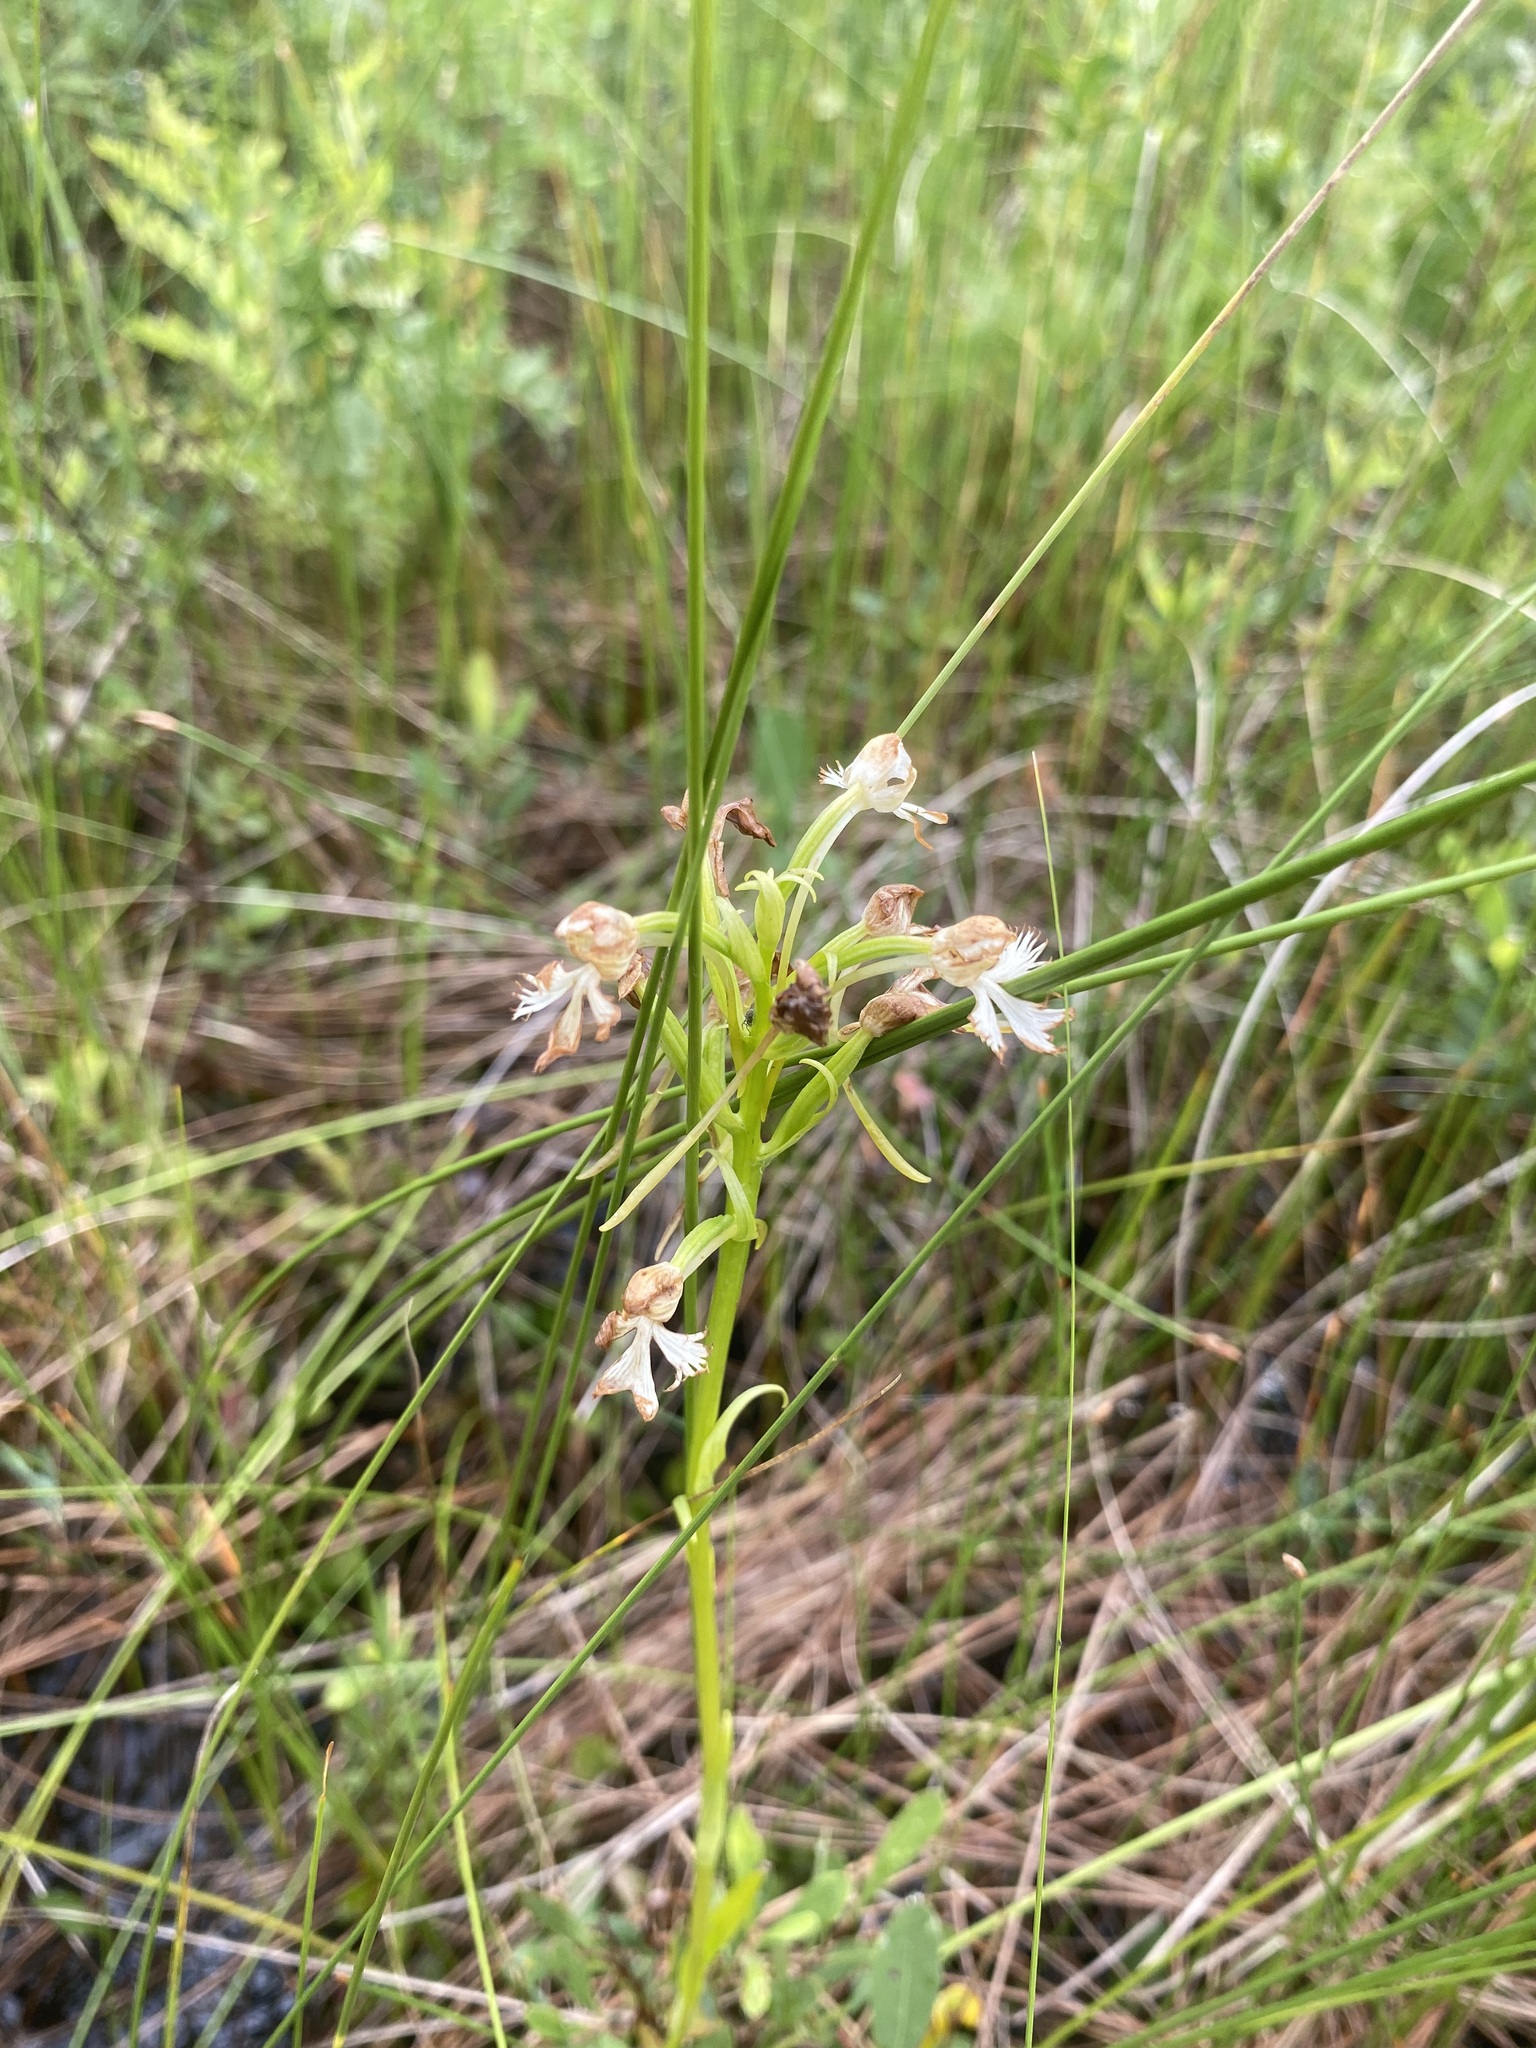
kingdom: Plantae
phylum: Tracheophyta
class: Liliopsida
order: Asparagales
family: Orchidaceae
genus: Platanthera
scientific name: Platanthera leucophaea
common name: Eastern prairie white-fringed orchid
